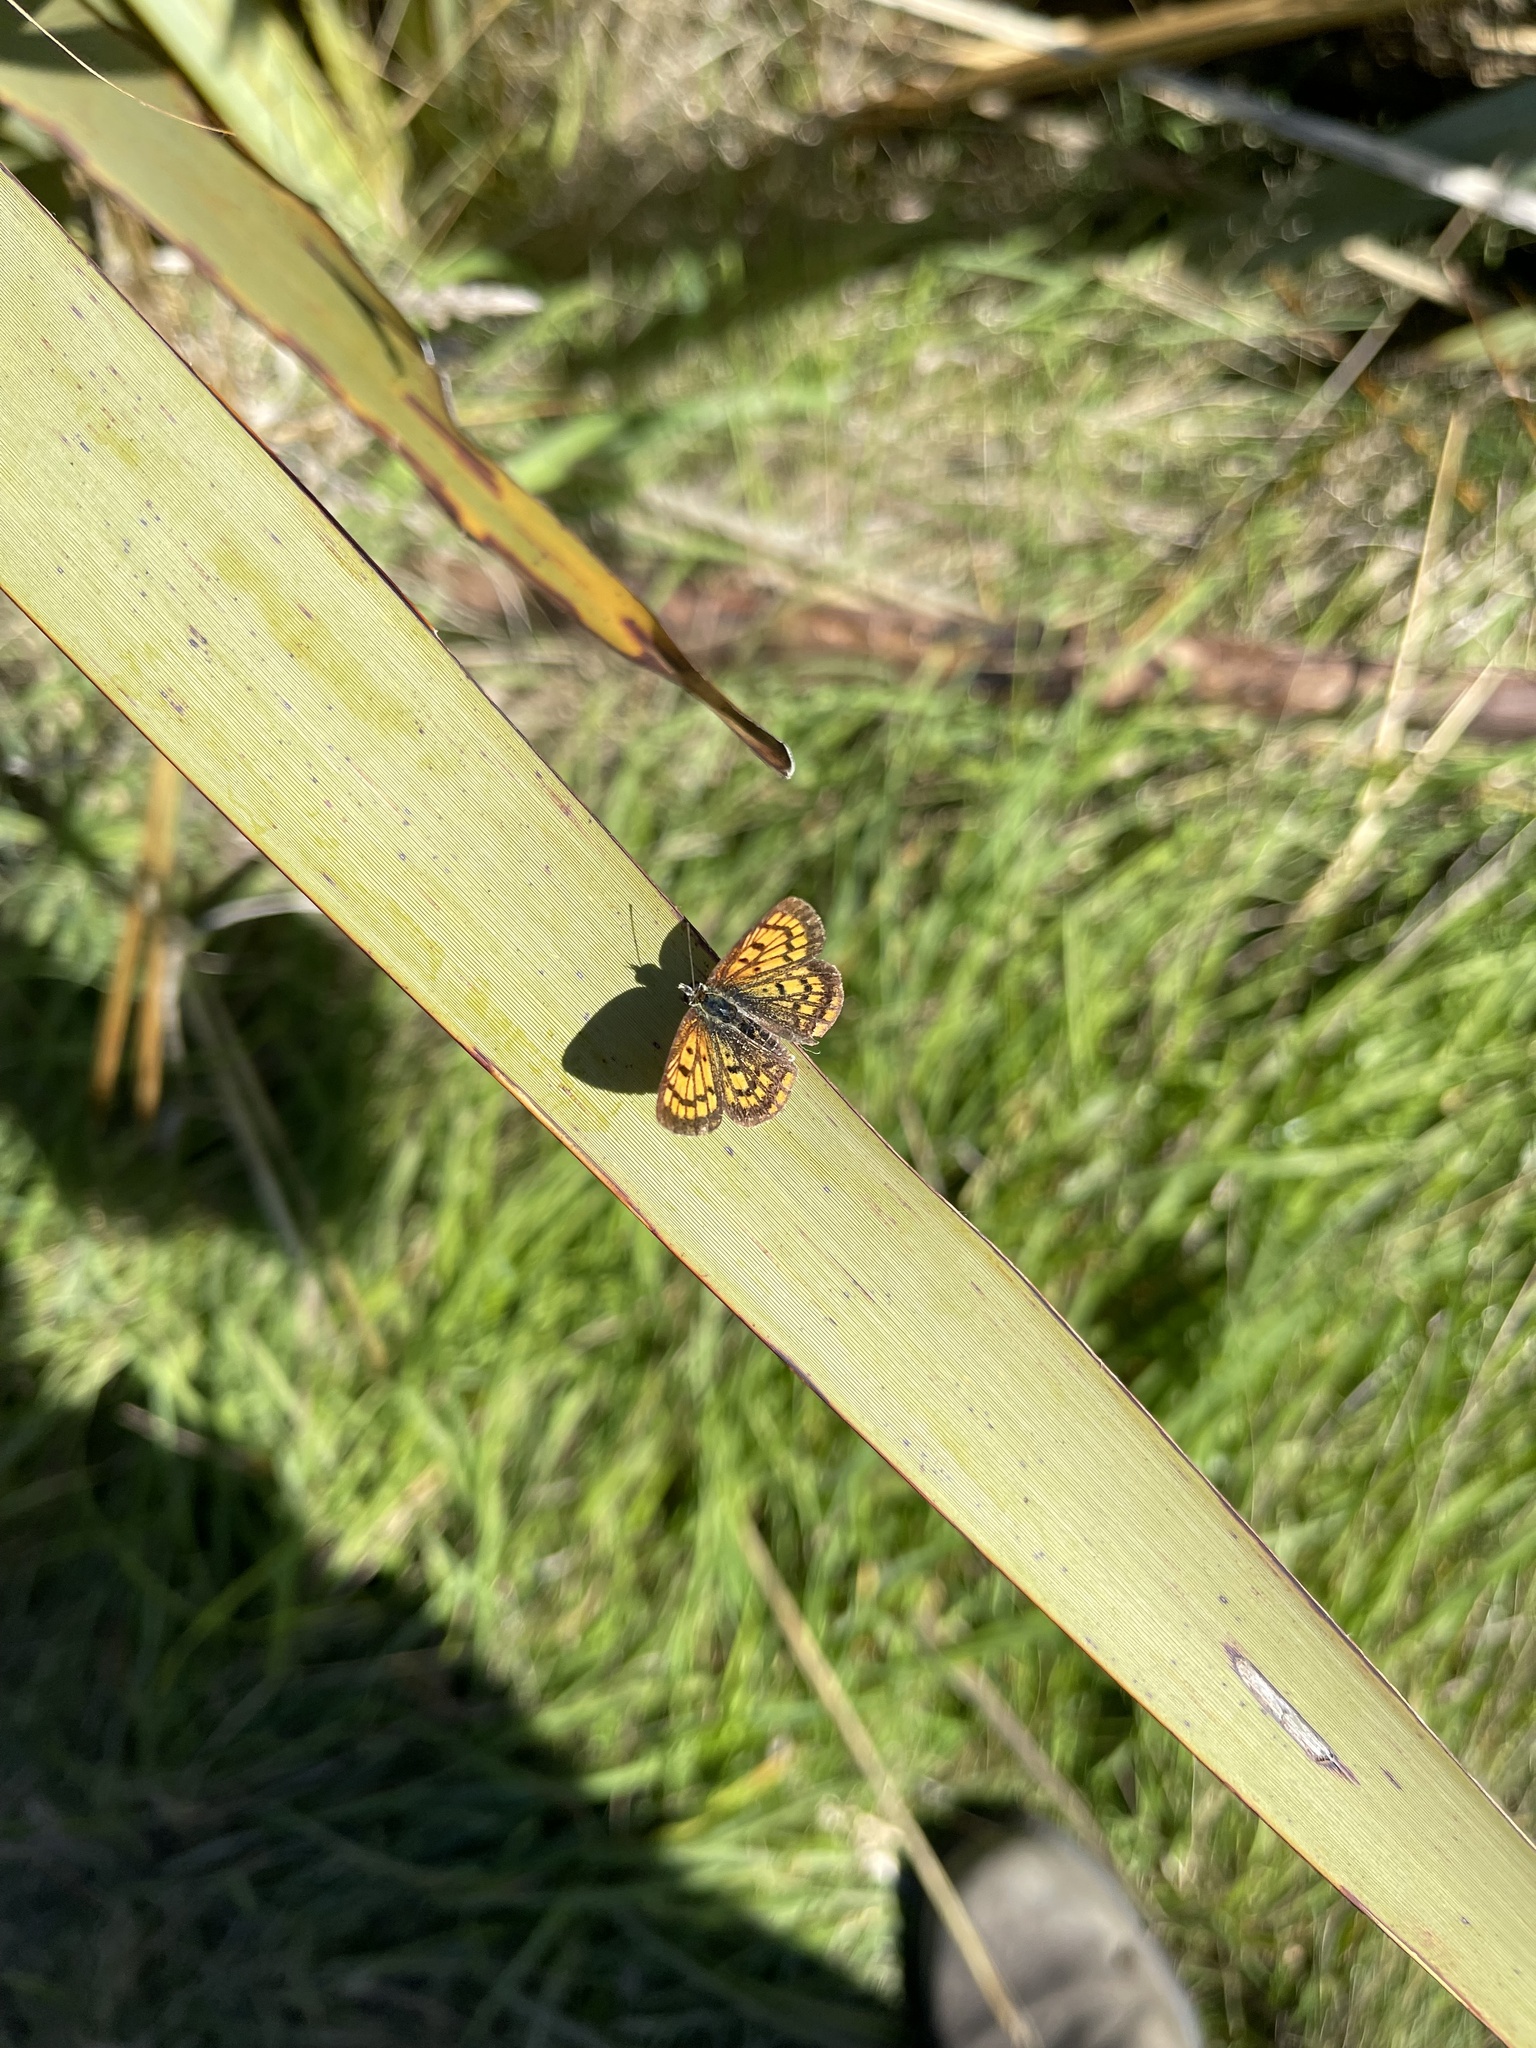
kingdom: Animalia
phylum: Arthropoda
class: Insecta
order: Lepidoptera
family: Lycaenidae
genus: Lycaena
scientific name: Lycaena
